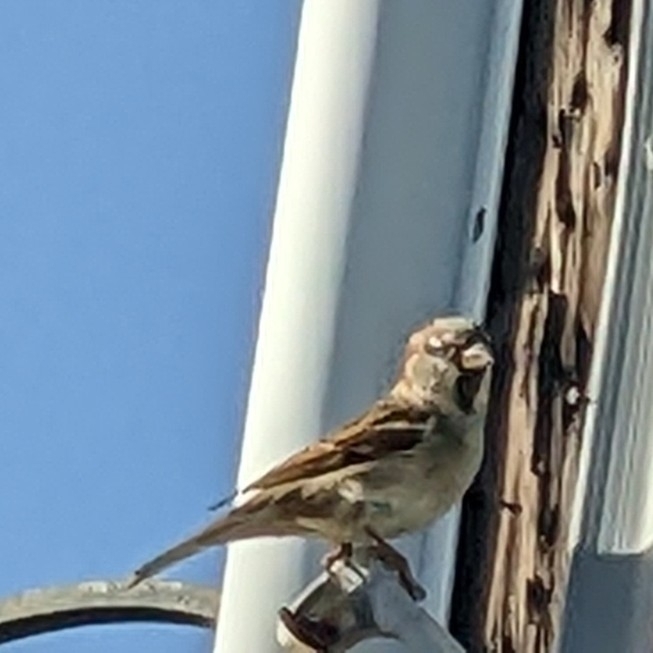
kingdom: Animalia
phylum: Chordata
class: Aves
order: Passeriformes
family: Passeridae
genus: Passer
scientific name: Passer domesticus
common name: House sparrow
